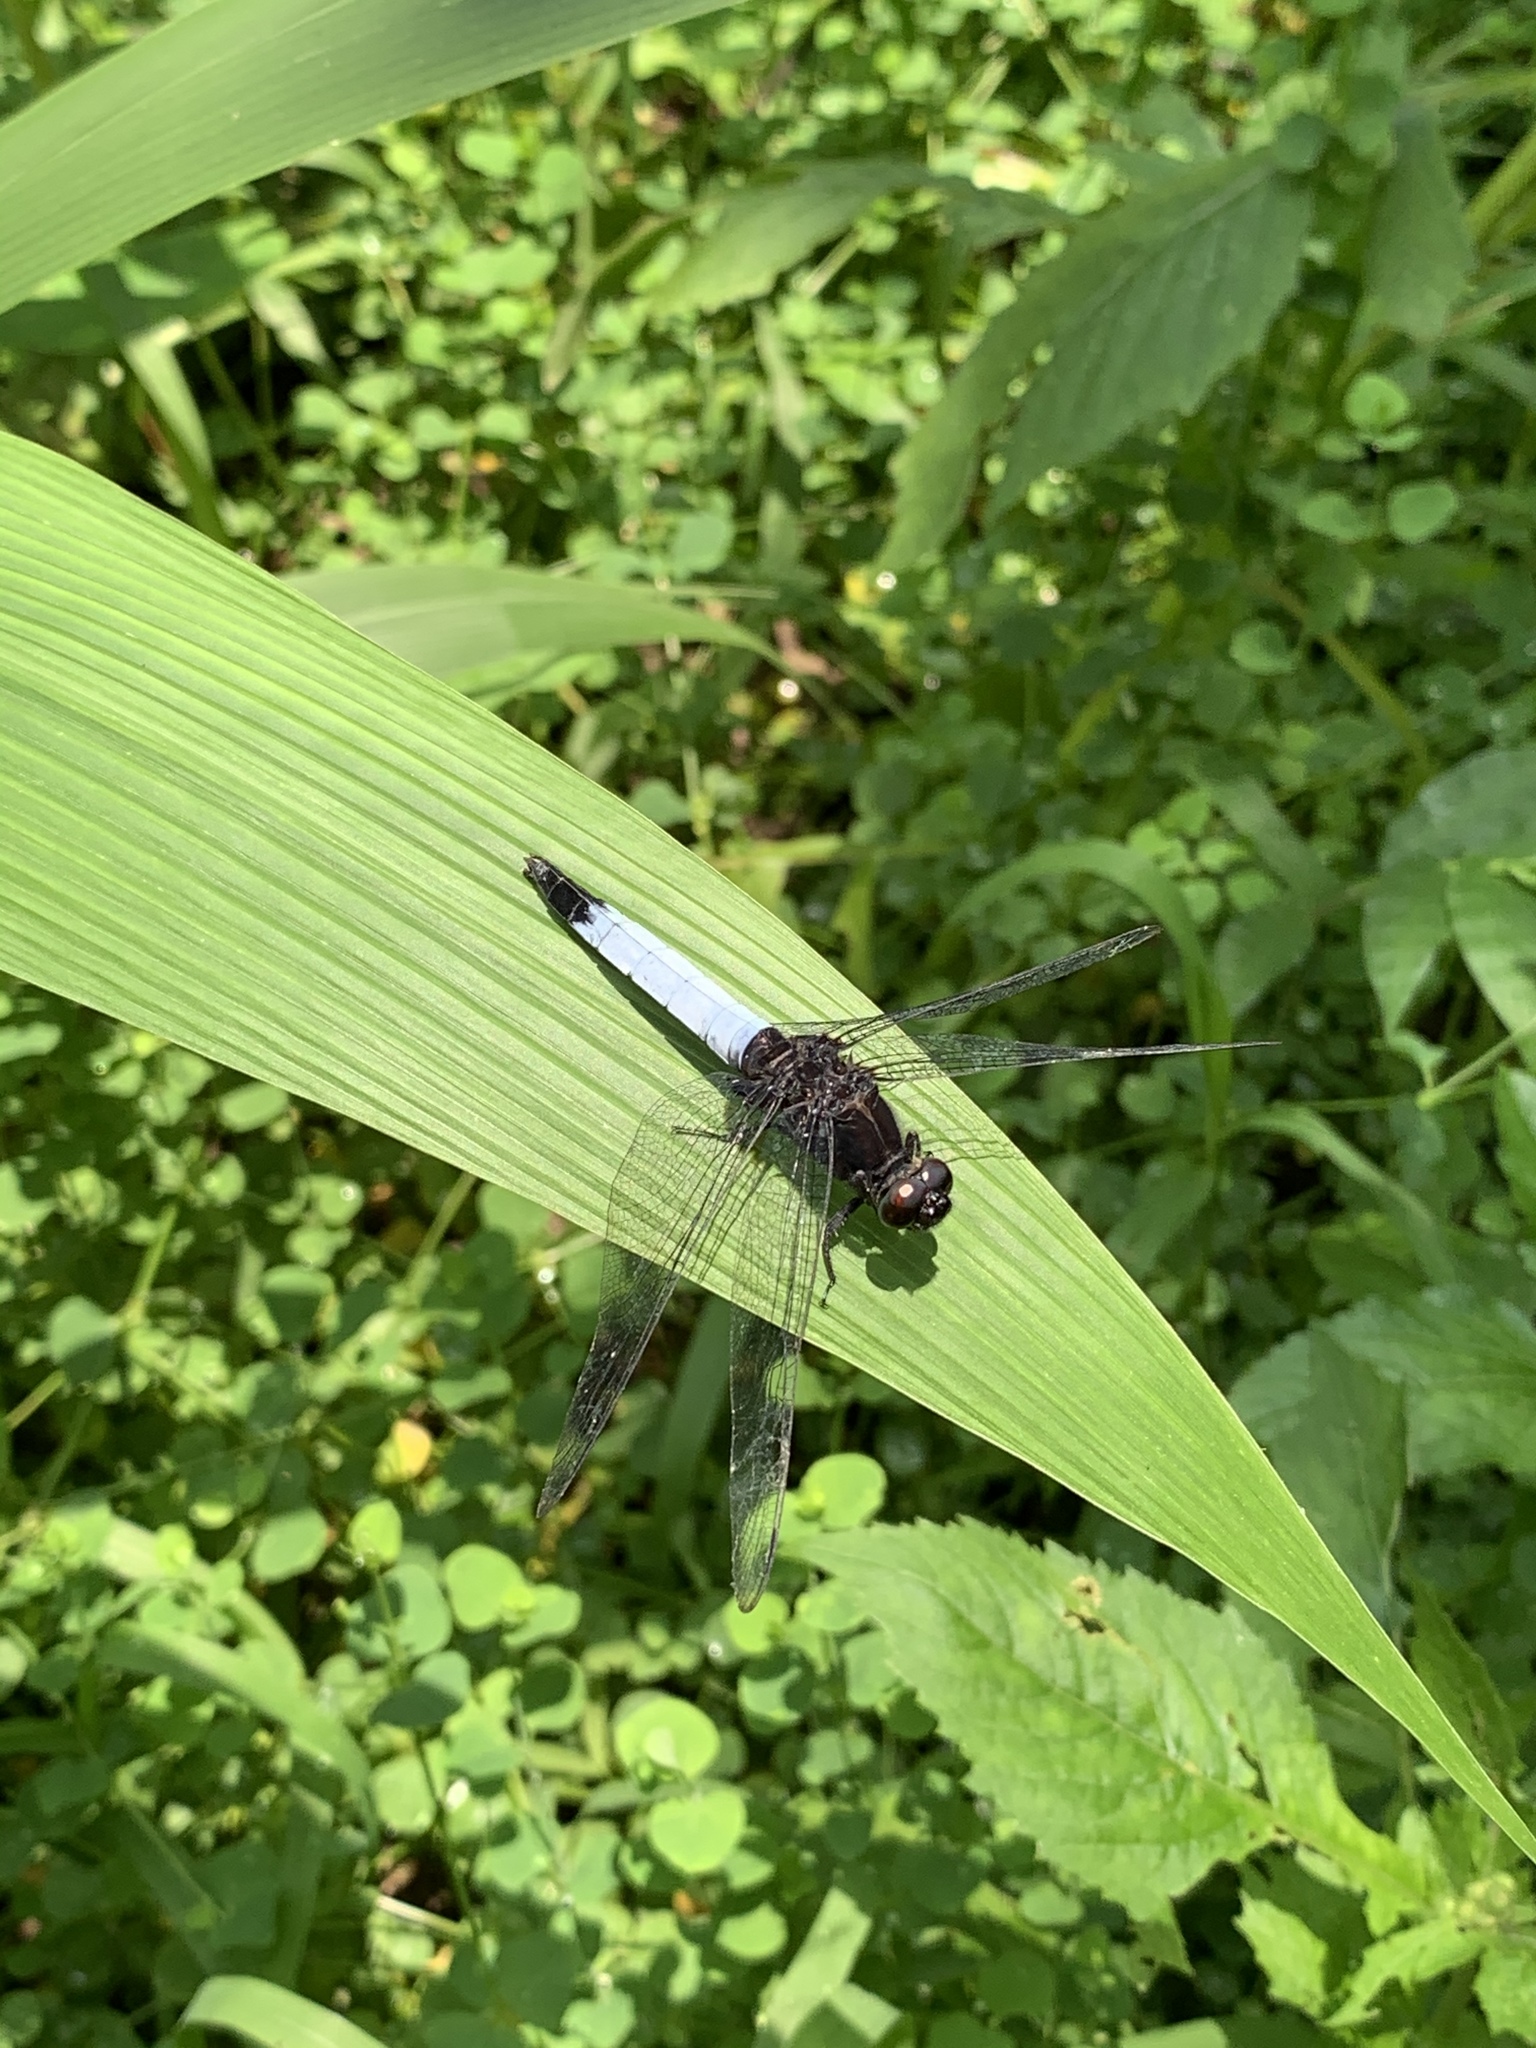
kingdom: Animalia
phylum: Arthropoda
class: Insecta
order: Odonata
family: Libellulidae
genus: Orthetrum
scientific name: Orthetrum triangulare
